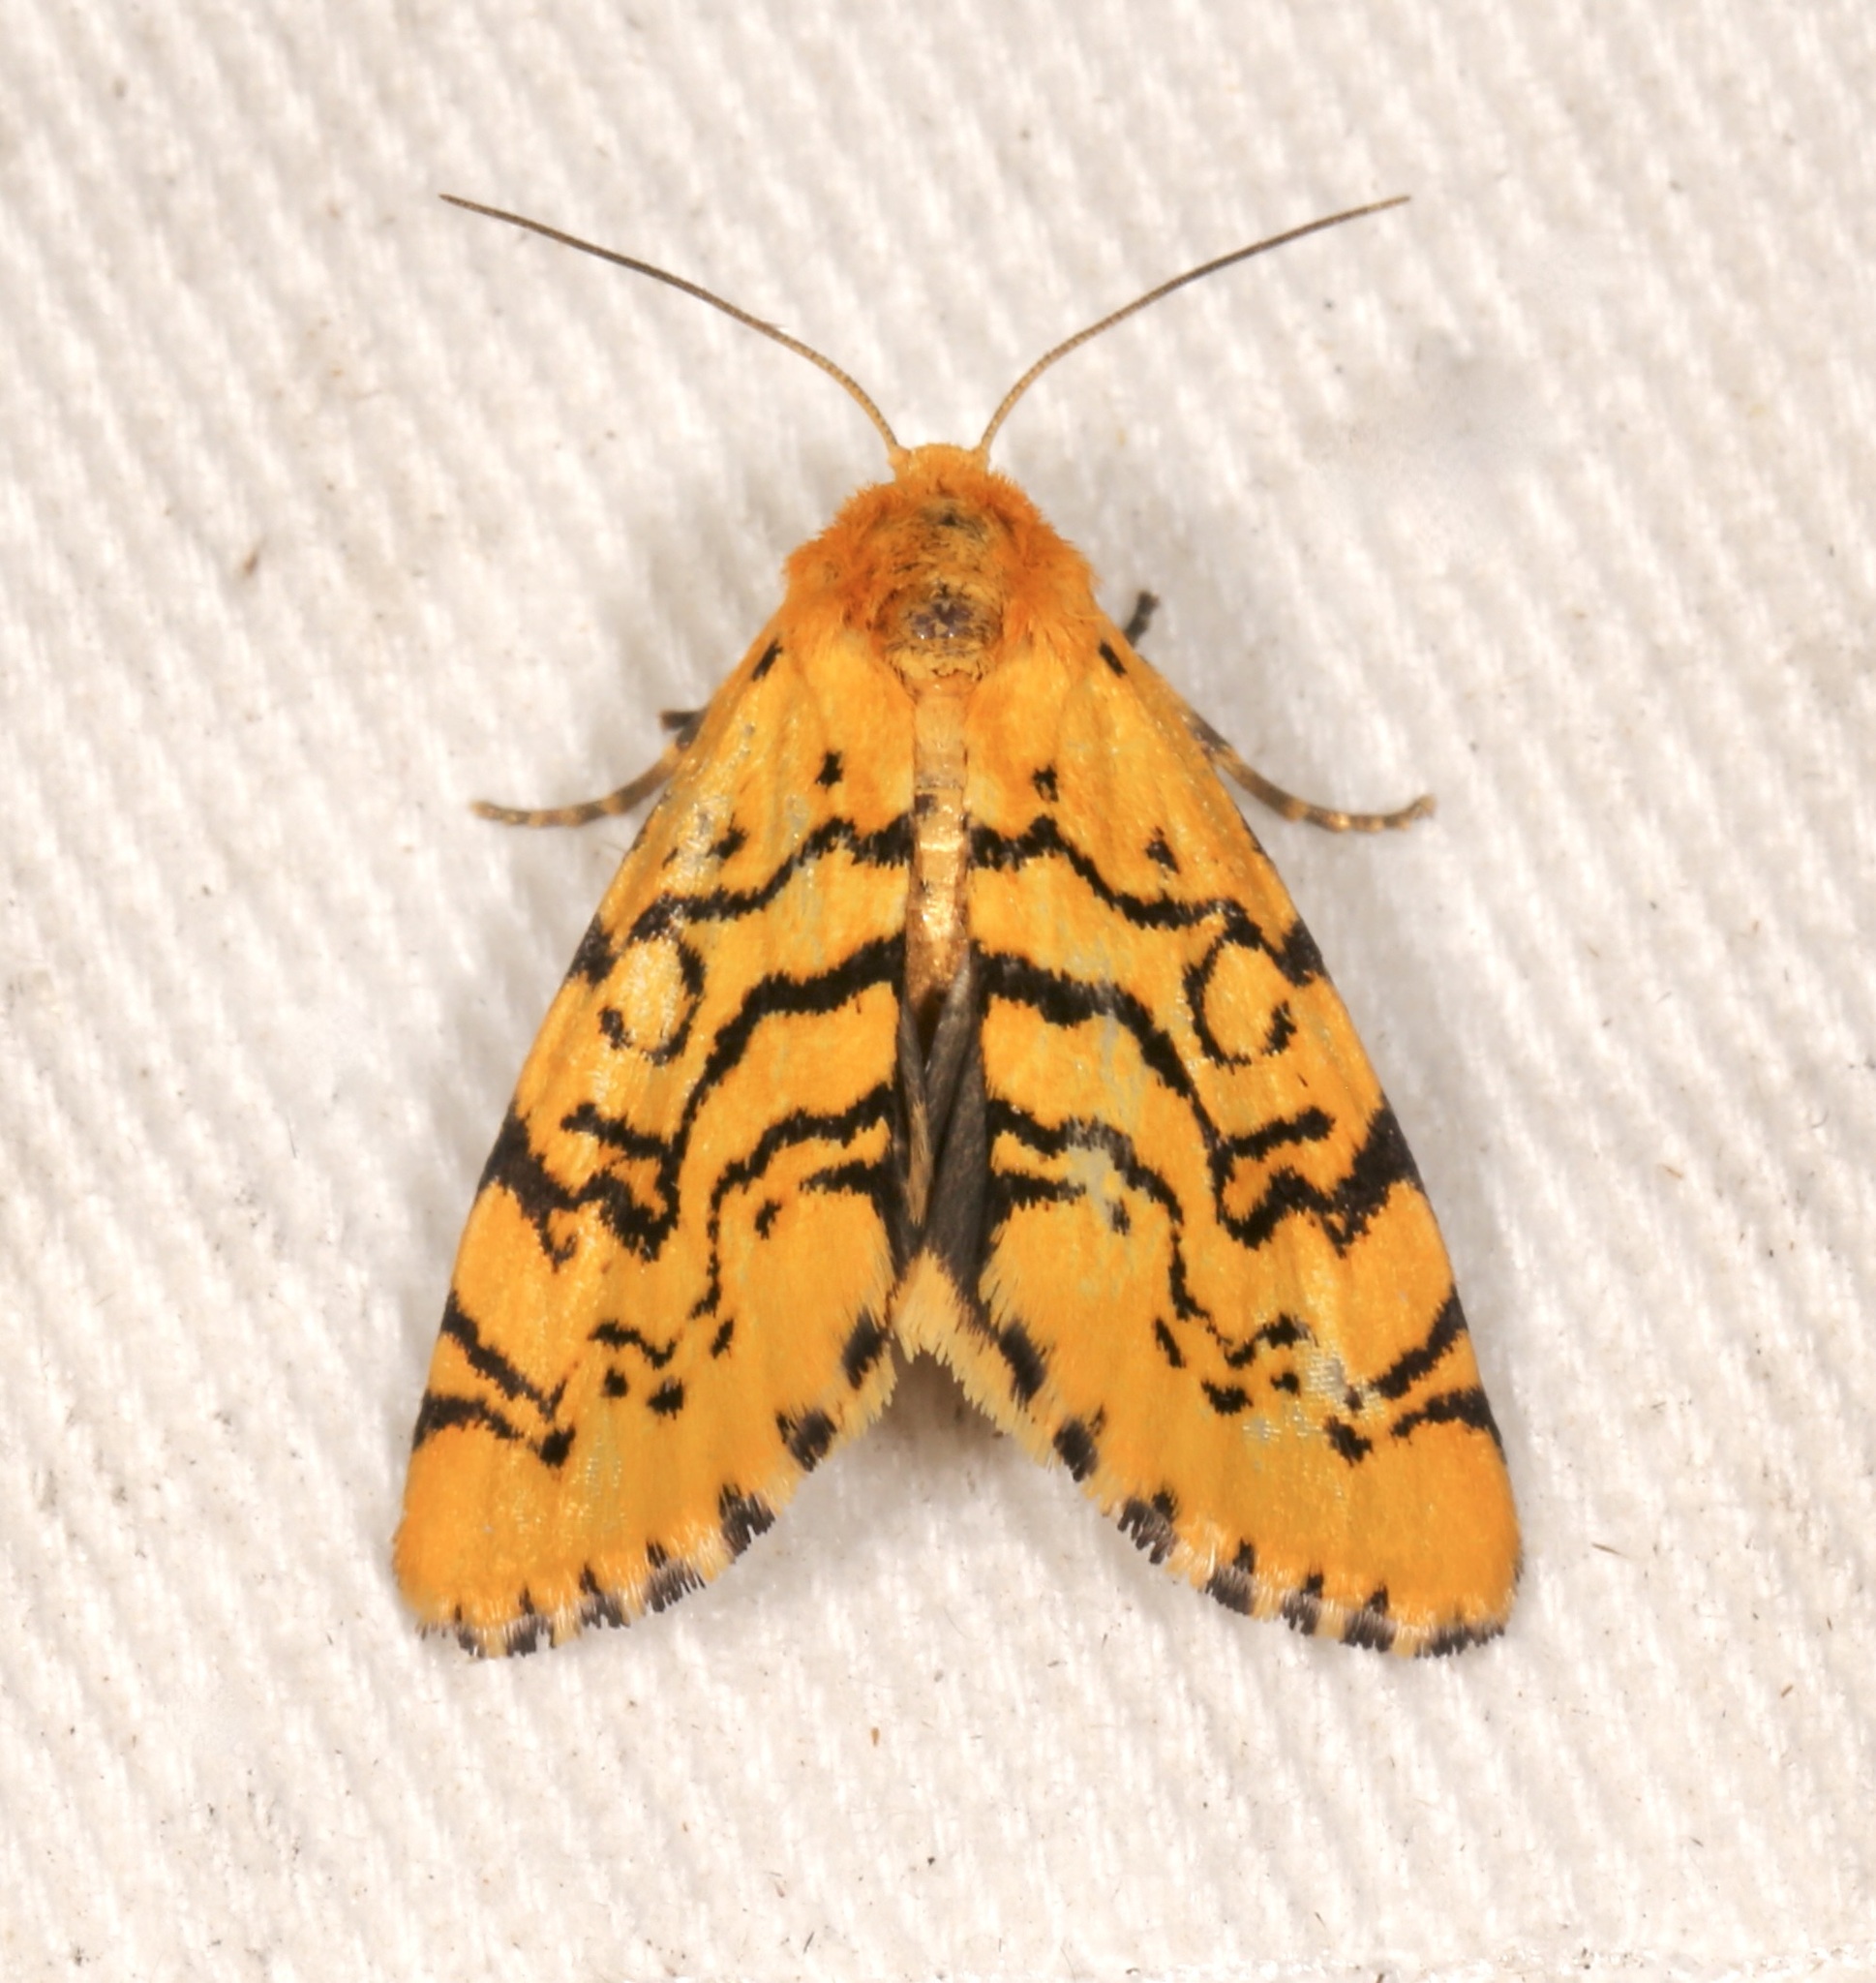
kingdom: Animalia
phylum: Arthropoda
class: Insecta
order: Lepidoptera
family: Noctuidae
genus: Chrysoecia
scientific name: Chrysoecia atrolinea
